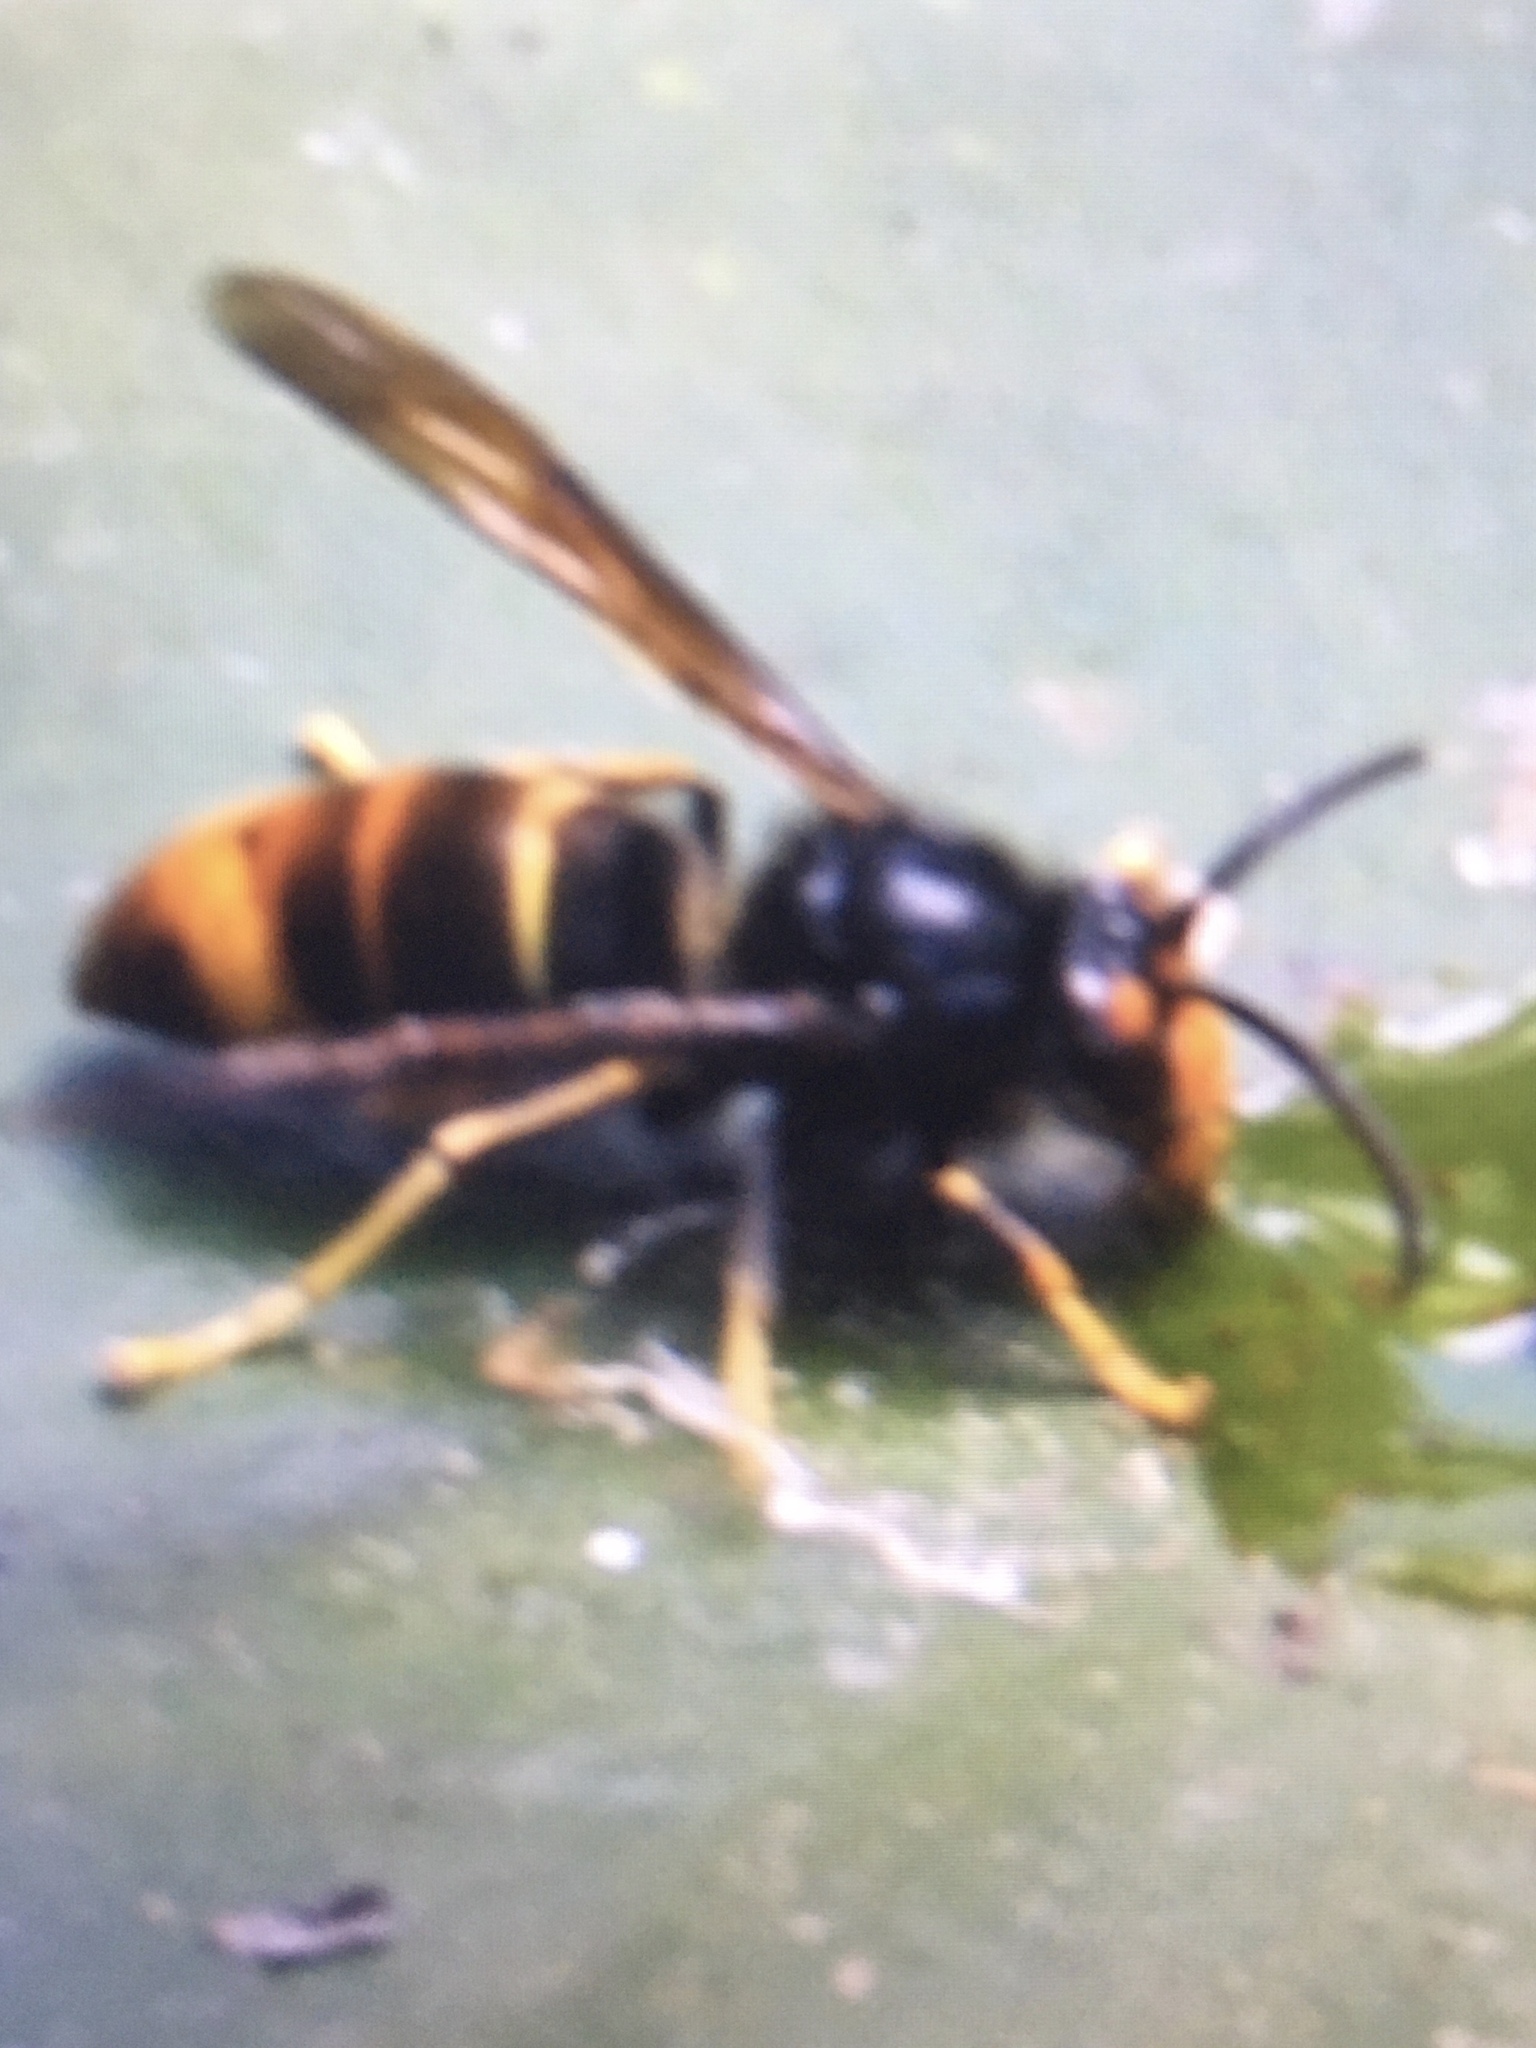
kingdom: Animalia
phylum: Arthropoda
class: Insecta
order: Hymenoptera
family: Vespidae
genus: Vespa
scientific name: Vespa velutina
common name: Asian hornet
